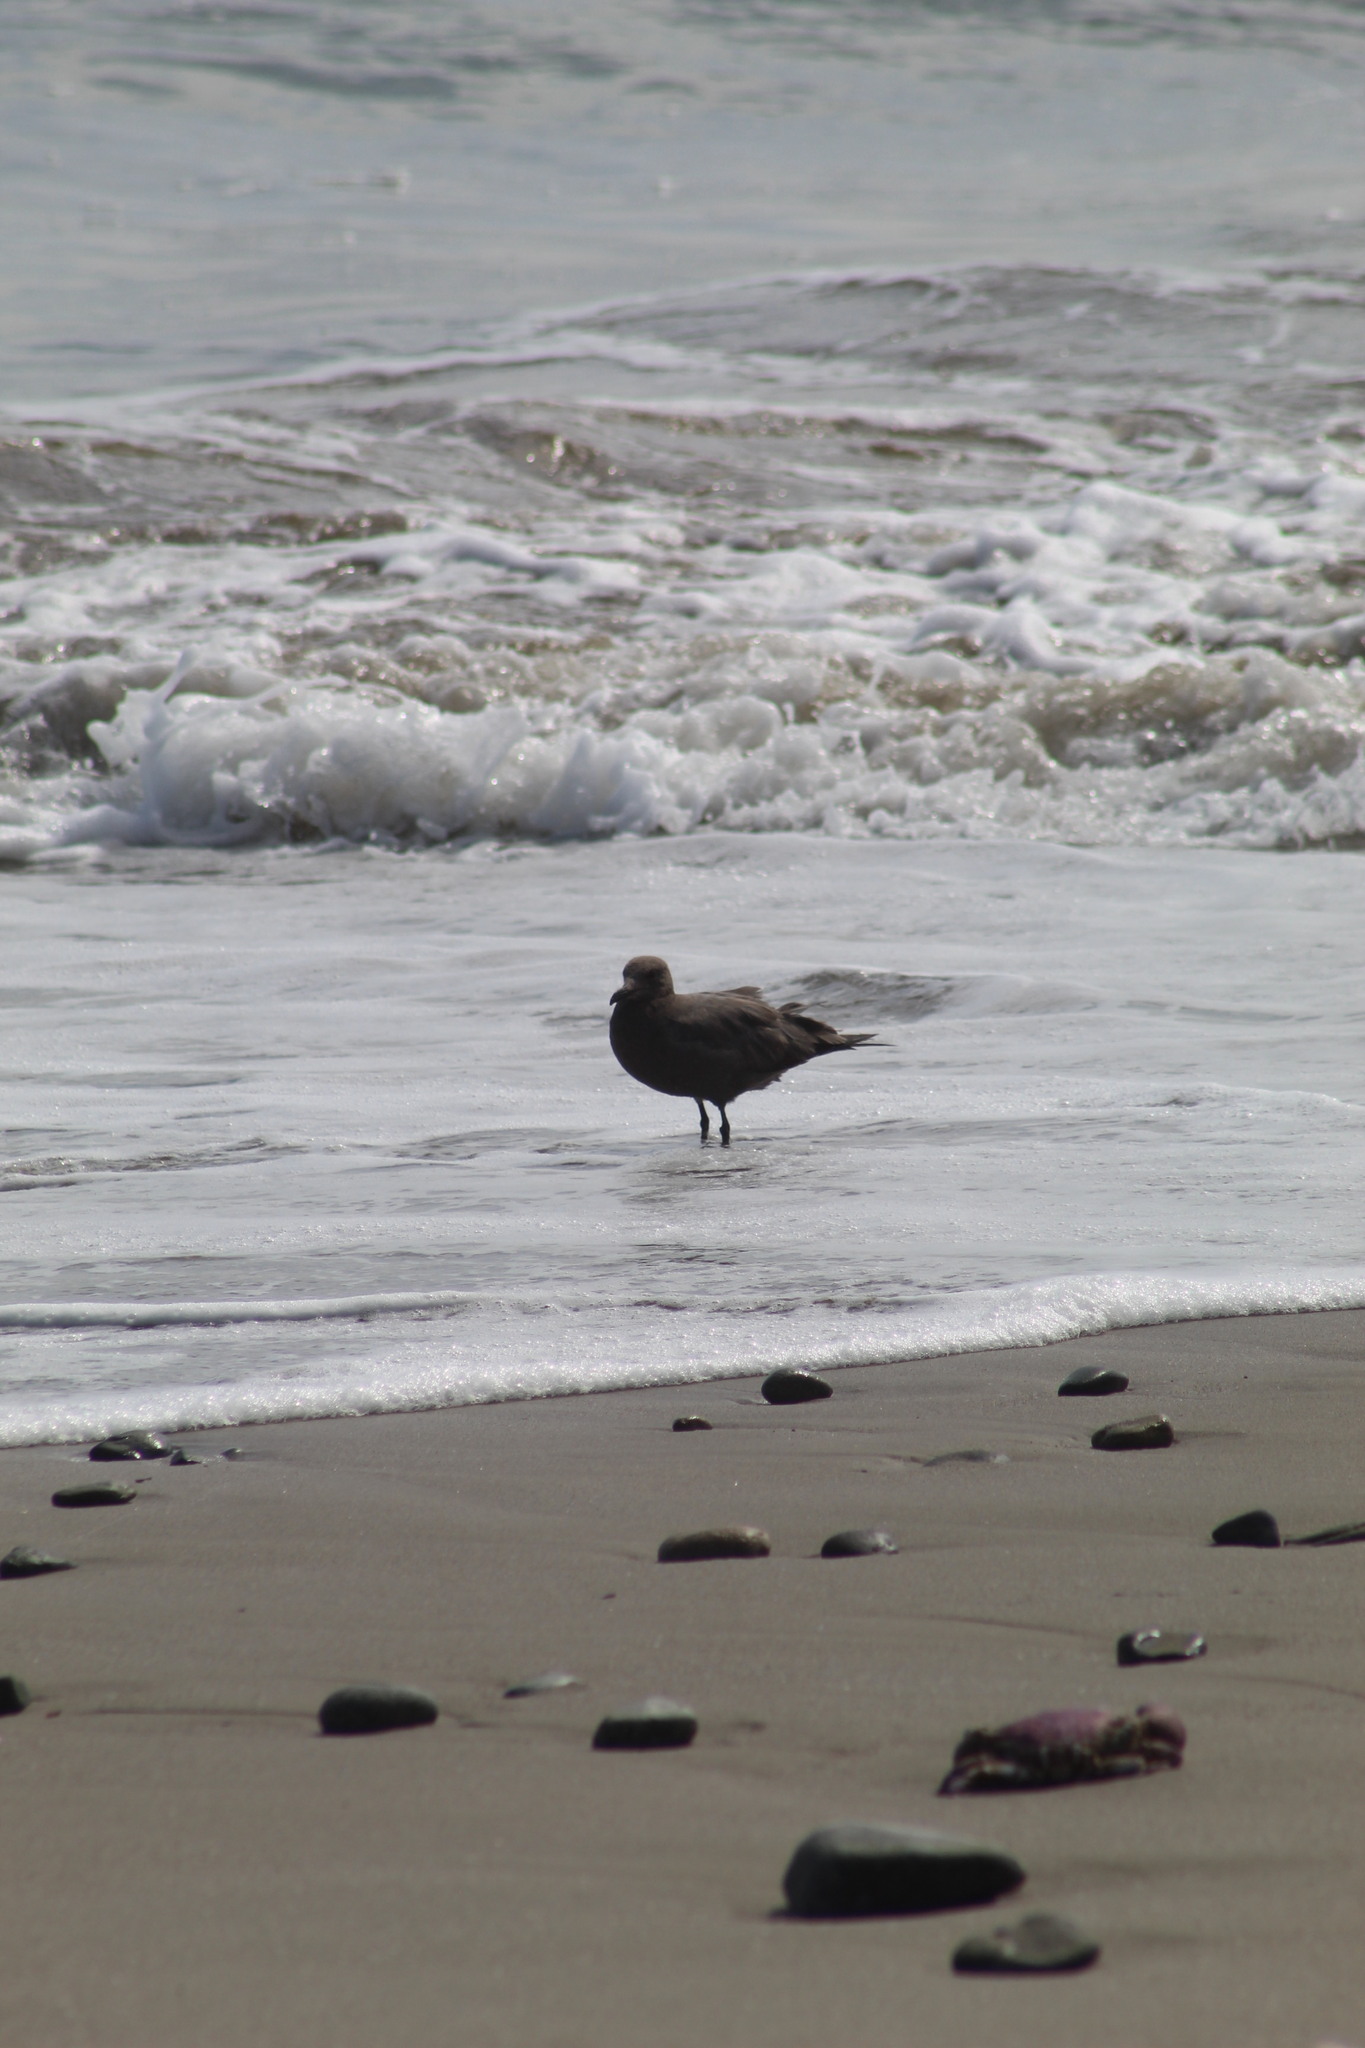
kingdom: Animalia
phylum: Chordata
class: Aves
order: Charadriiformes
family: Laridae
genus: Leucophaeus
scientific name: Leucophaeus modestus
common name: Gray gull
